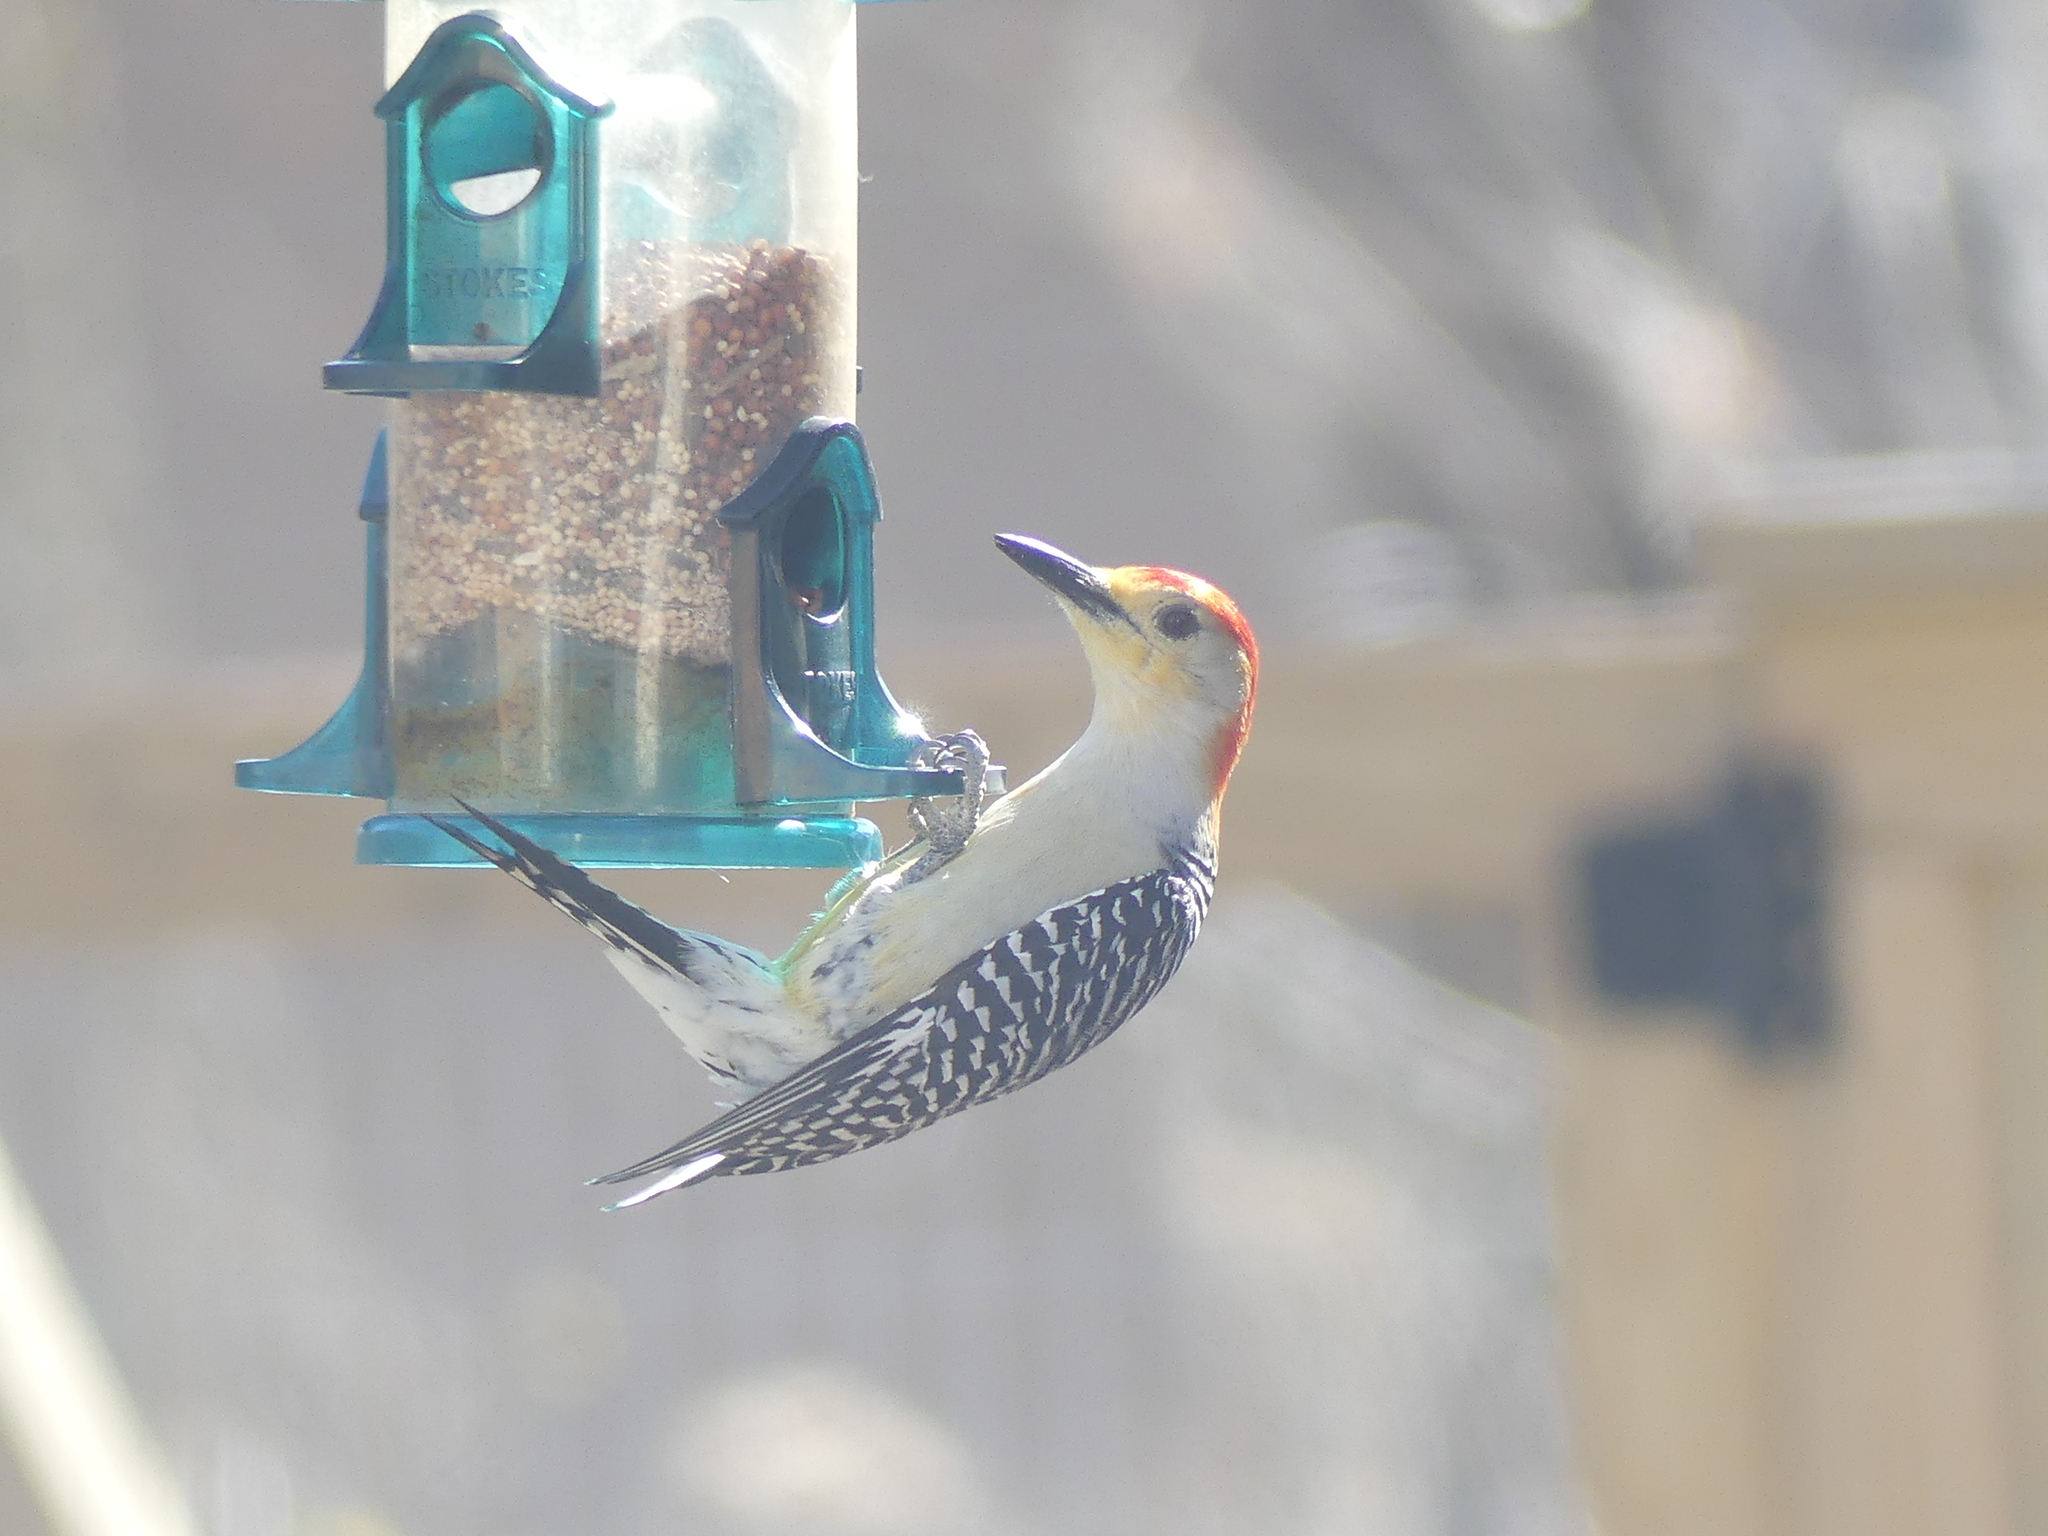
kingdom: Animalia
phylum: Chordata
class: Aves
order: Piciformes
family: Picidae
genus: Melanerpes
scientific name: Melanerpes
